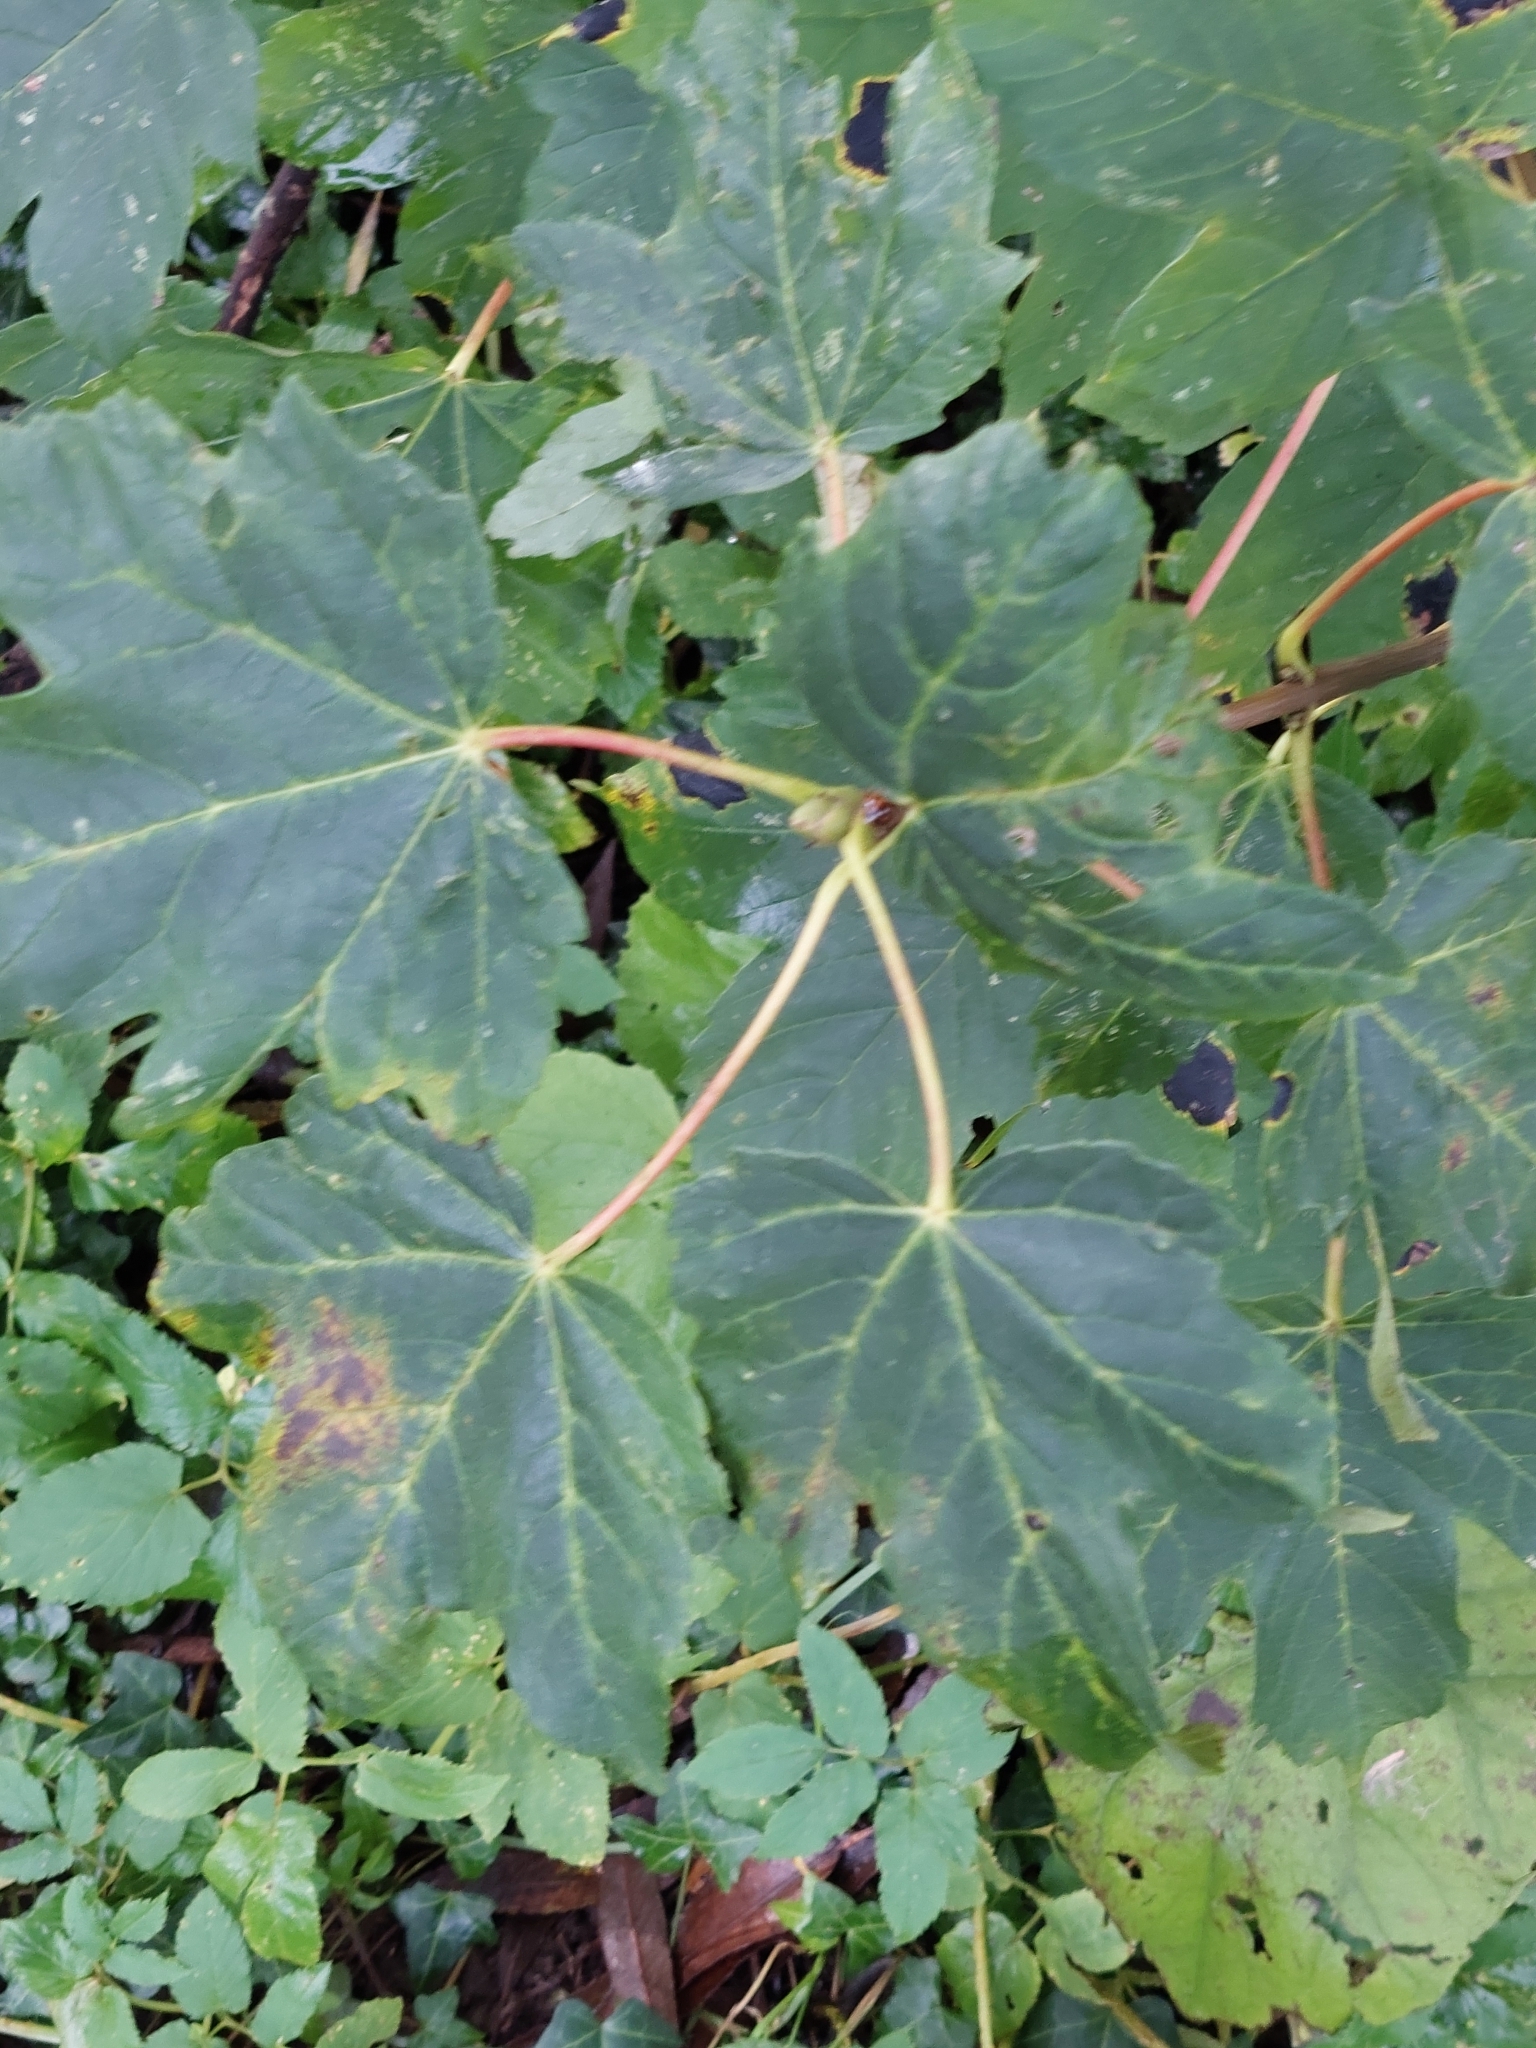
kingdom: Plantae
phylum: Tracheophyta
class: Magnoliopsida
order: Sapindales
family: Sapindaceae
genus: Acer
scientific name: Acer pseudoplatanus
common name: Sycamore
